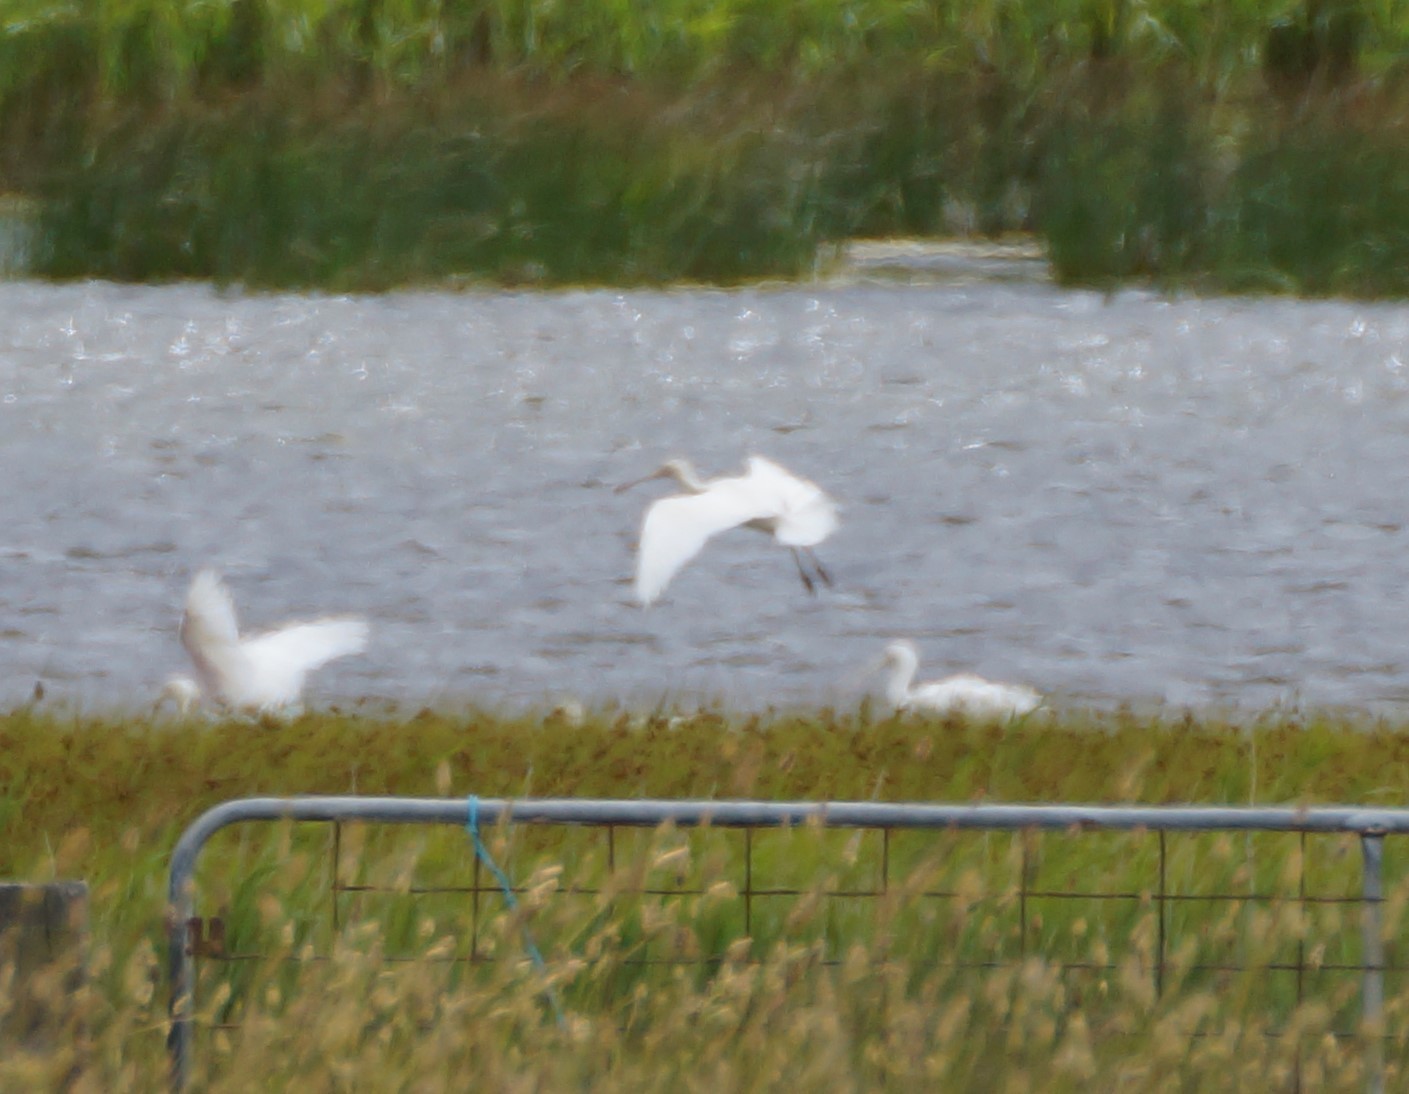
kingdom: Animalia
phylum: Chordata
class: Aves
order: Pelecaniformes
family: Threskiornithidae
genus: Platalea
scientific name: Platalea flavipes
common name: Yellow-billed spoonbill
